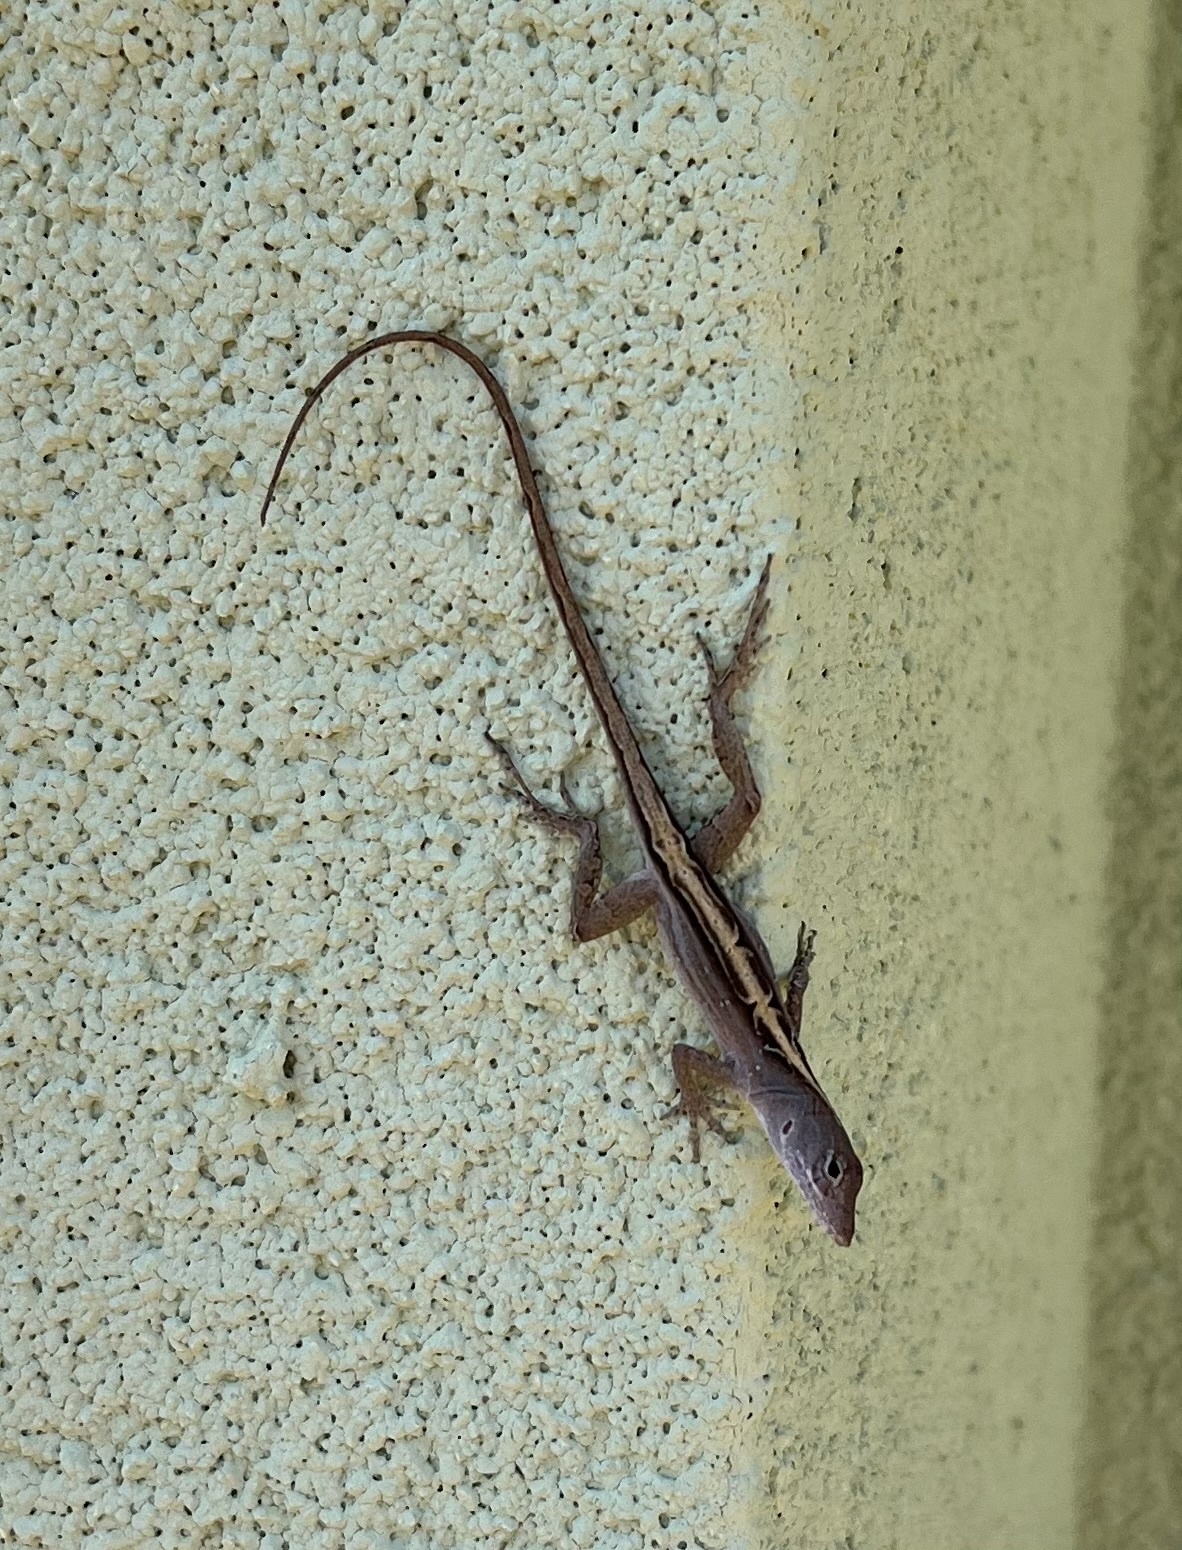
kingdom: Animalia
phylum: Chordata
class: Squamata
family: Dactyloidae
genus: Anolis
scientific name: Anolis sagrei
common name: Brown anole
